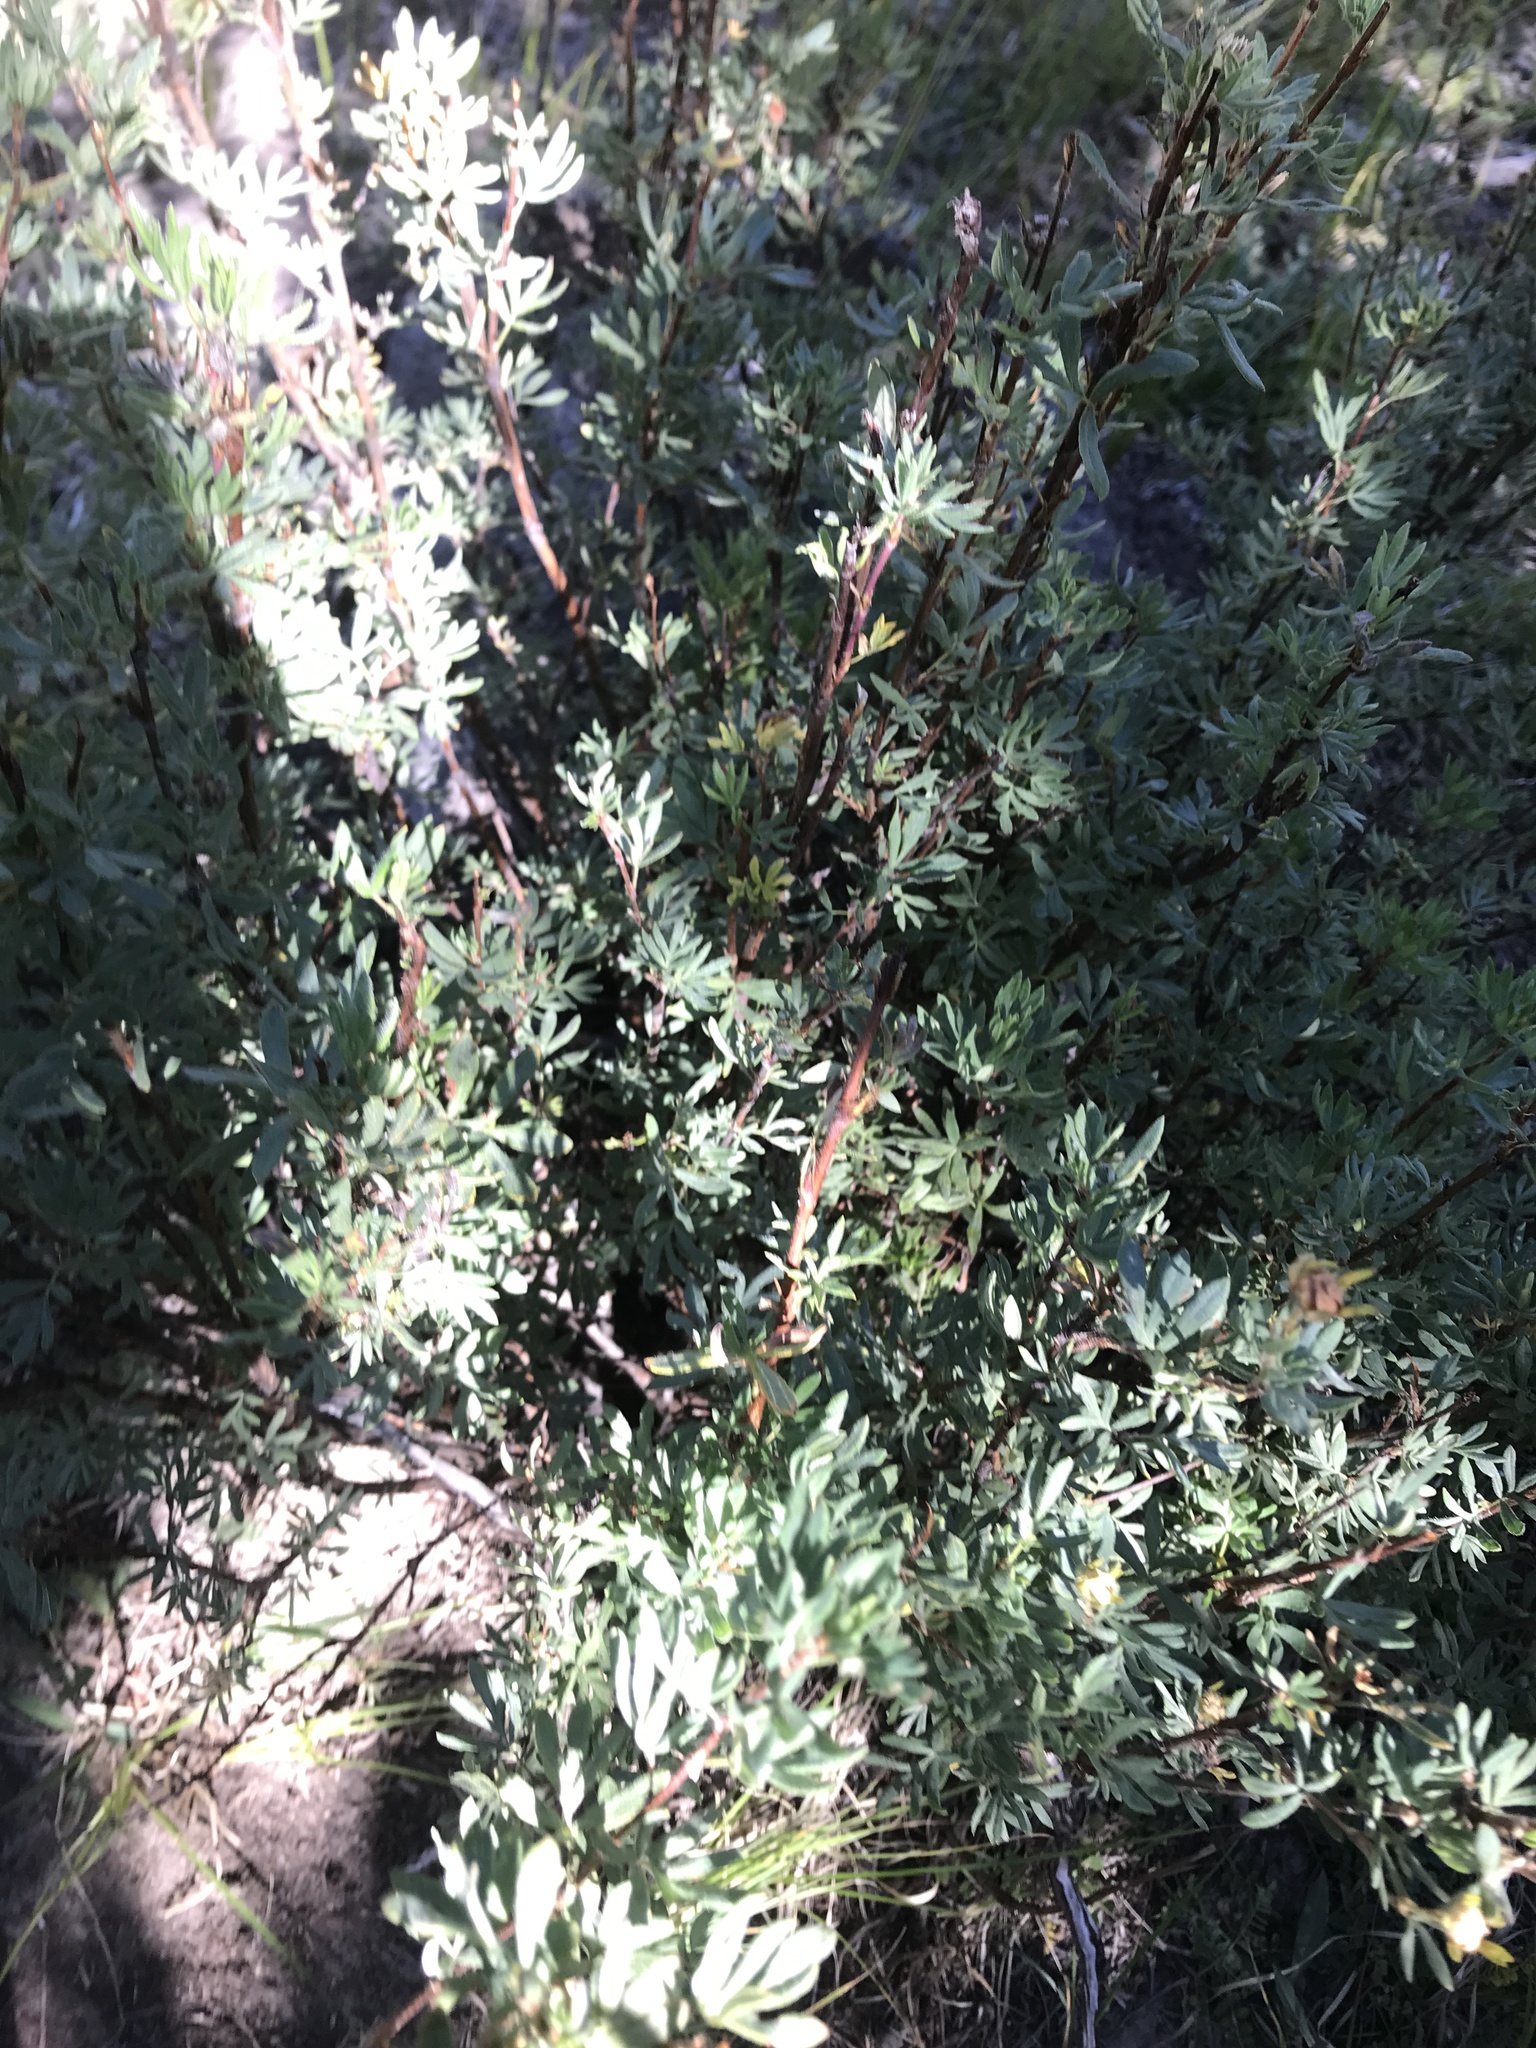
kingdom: Plantae
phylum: Tracheophyta
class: Magnoliopsida
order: Rosales
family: Rosaceae
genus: Dasiphora
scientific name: Dasiphora fruticosa
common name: Shrubby cinquefoil
